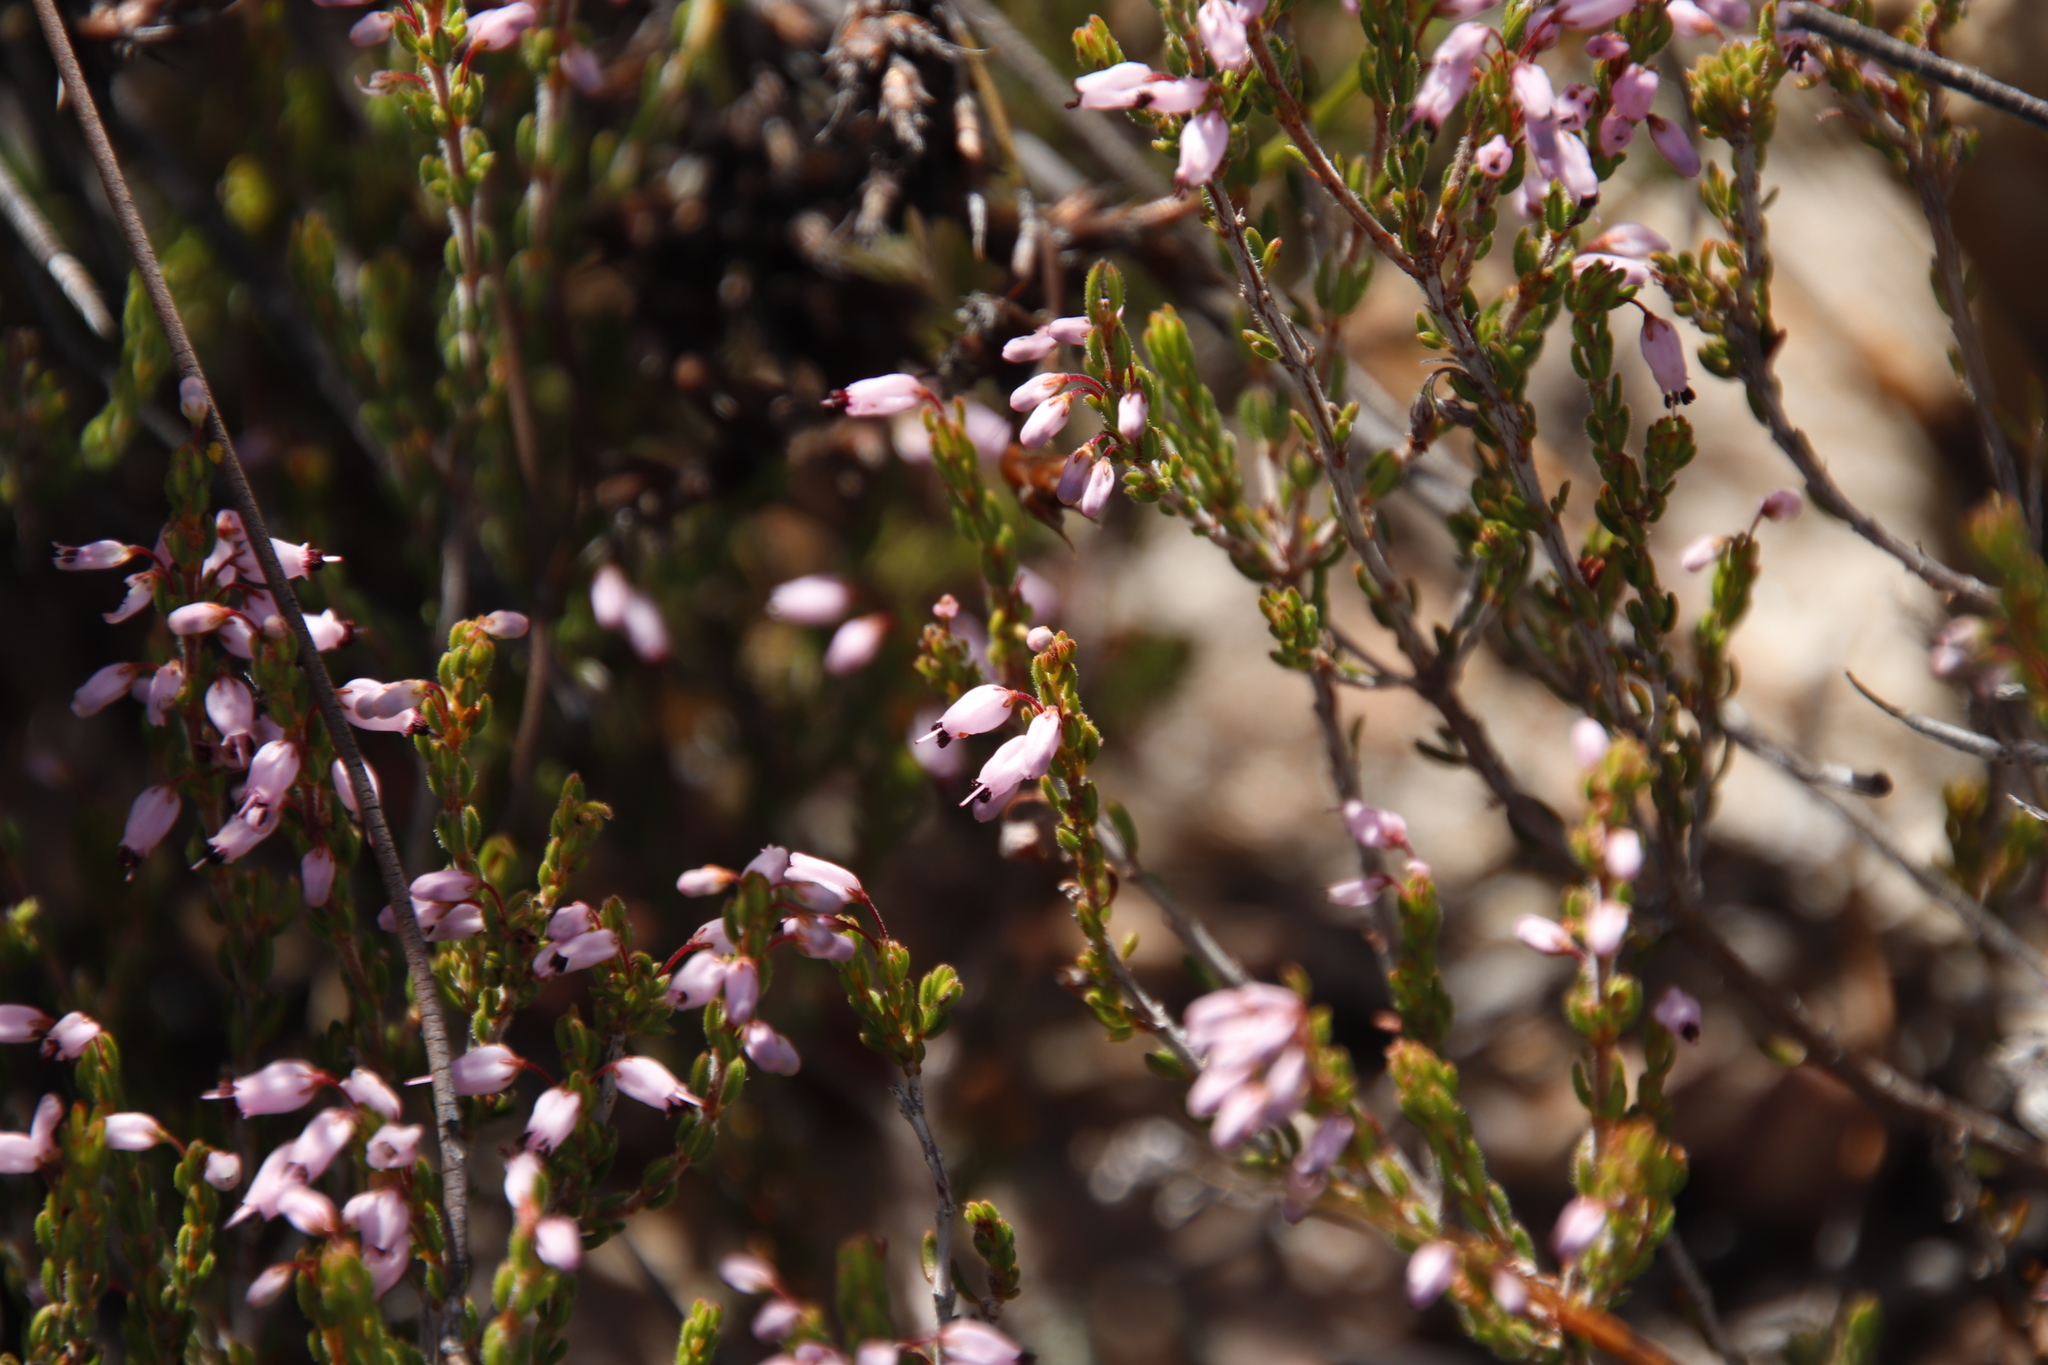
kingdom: Plantae
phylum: Tracheophyta
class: Magnoliopsida
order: Ericales
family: Ericaceae
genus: Erica
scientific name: Erica nudiflora
